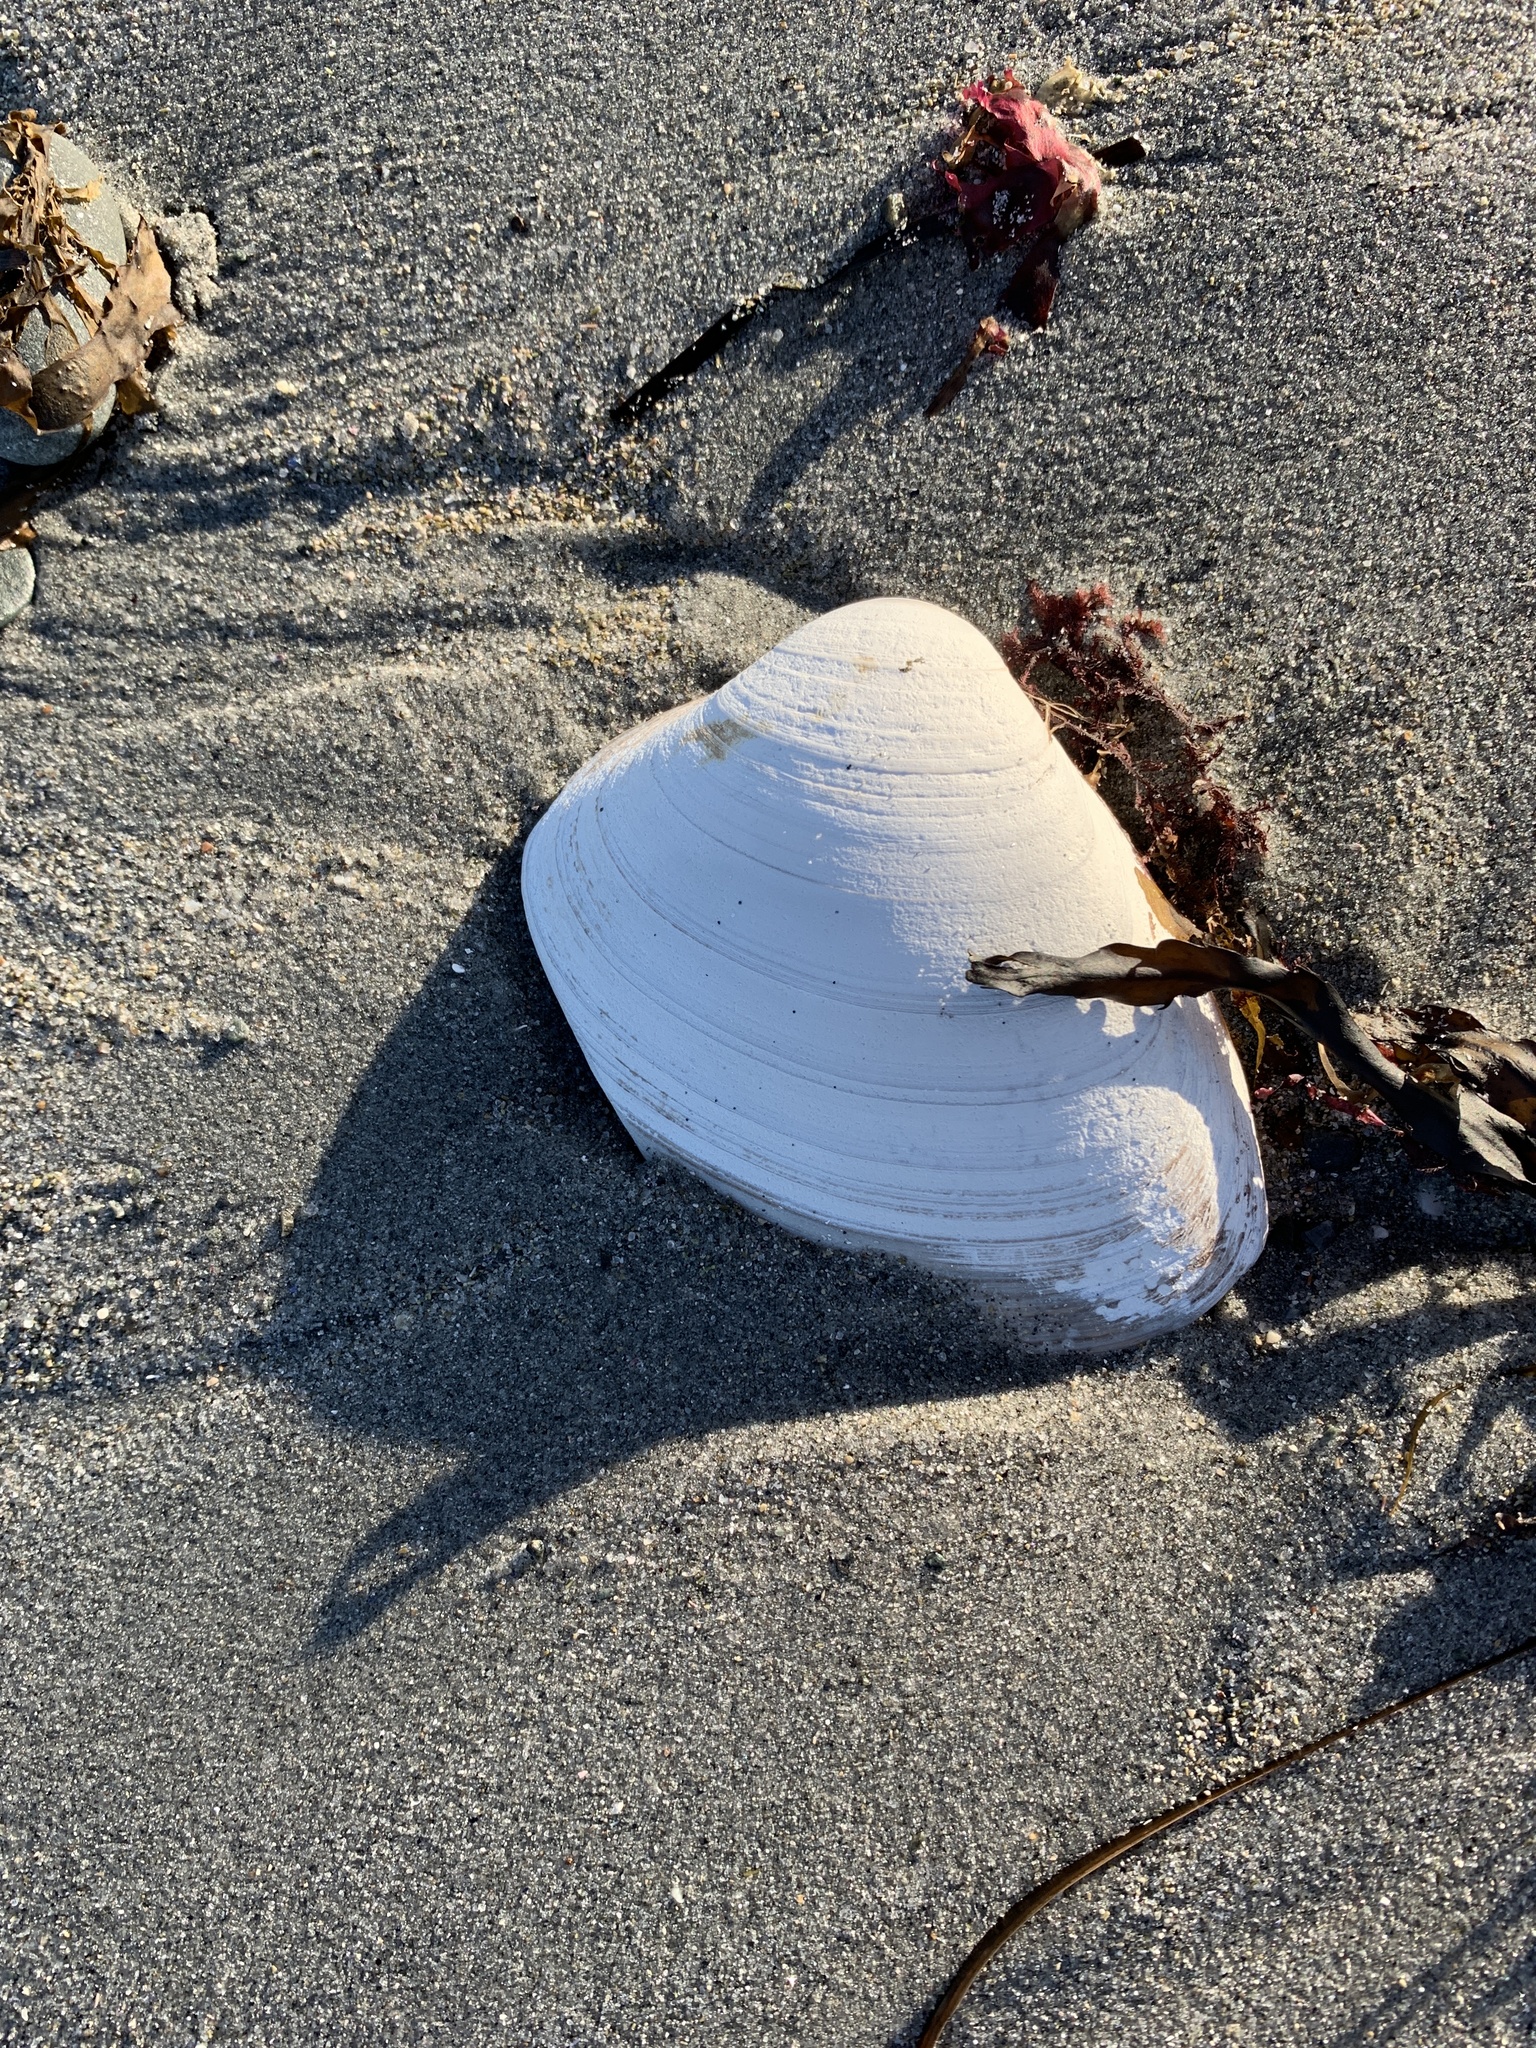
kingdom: Animalia
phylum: Mollusca
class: Bivalvia
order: Venerida
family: Mactridae
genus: Spisula
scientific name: Spisula solidissima
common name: Atlantic surf clam
